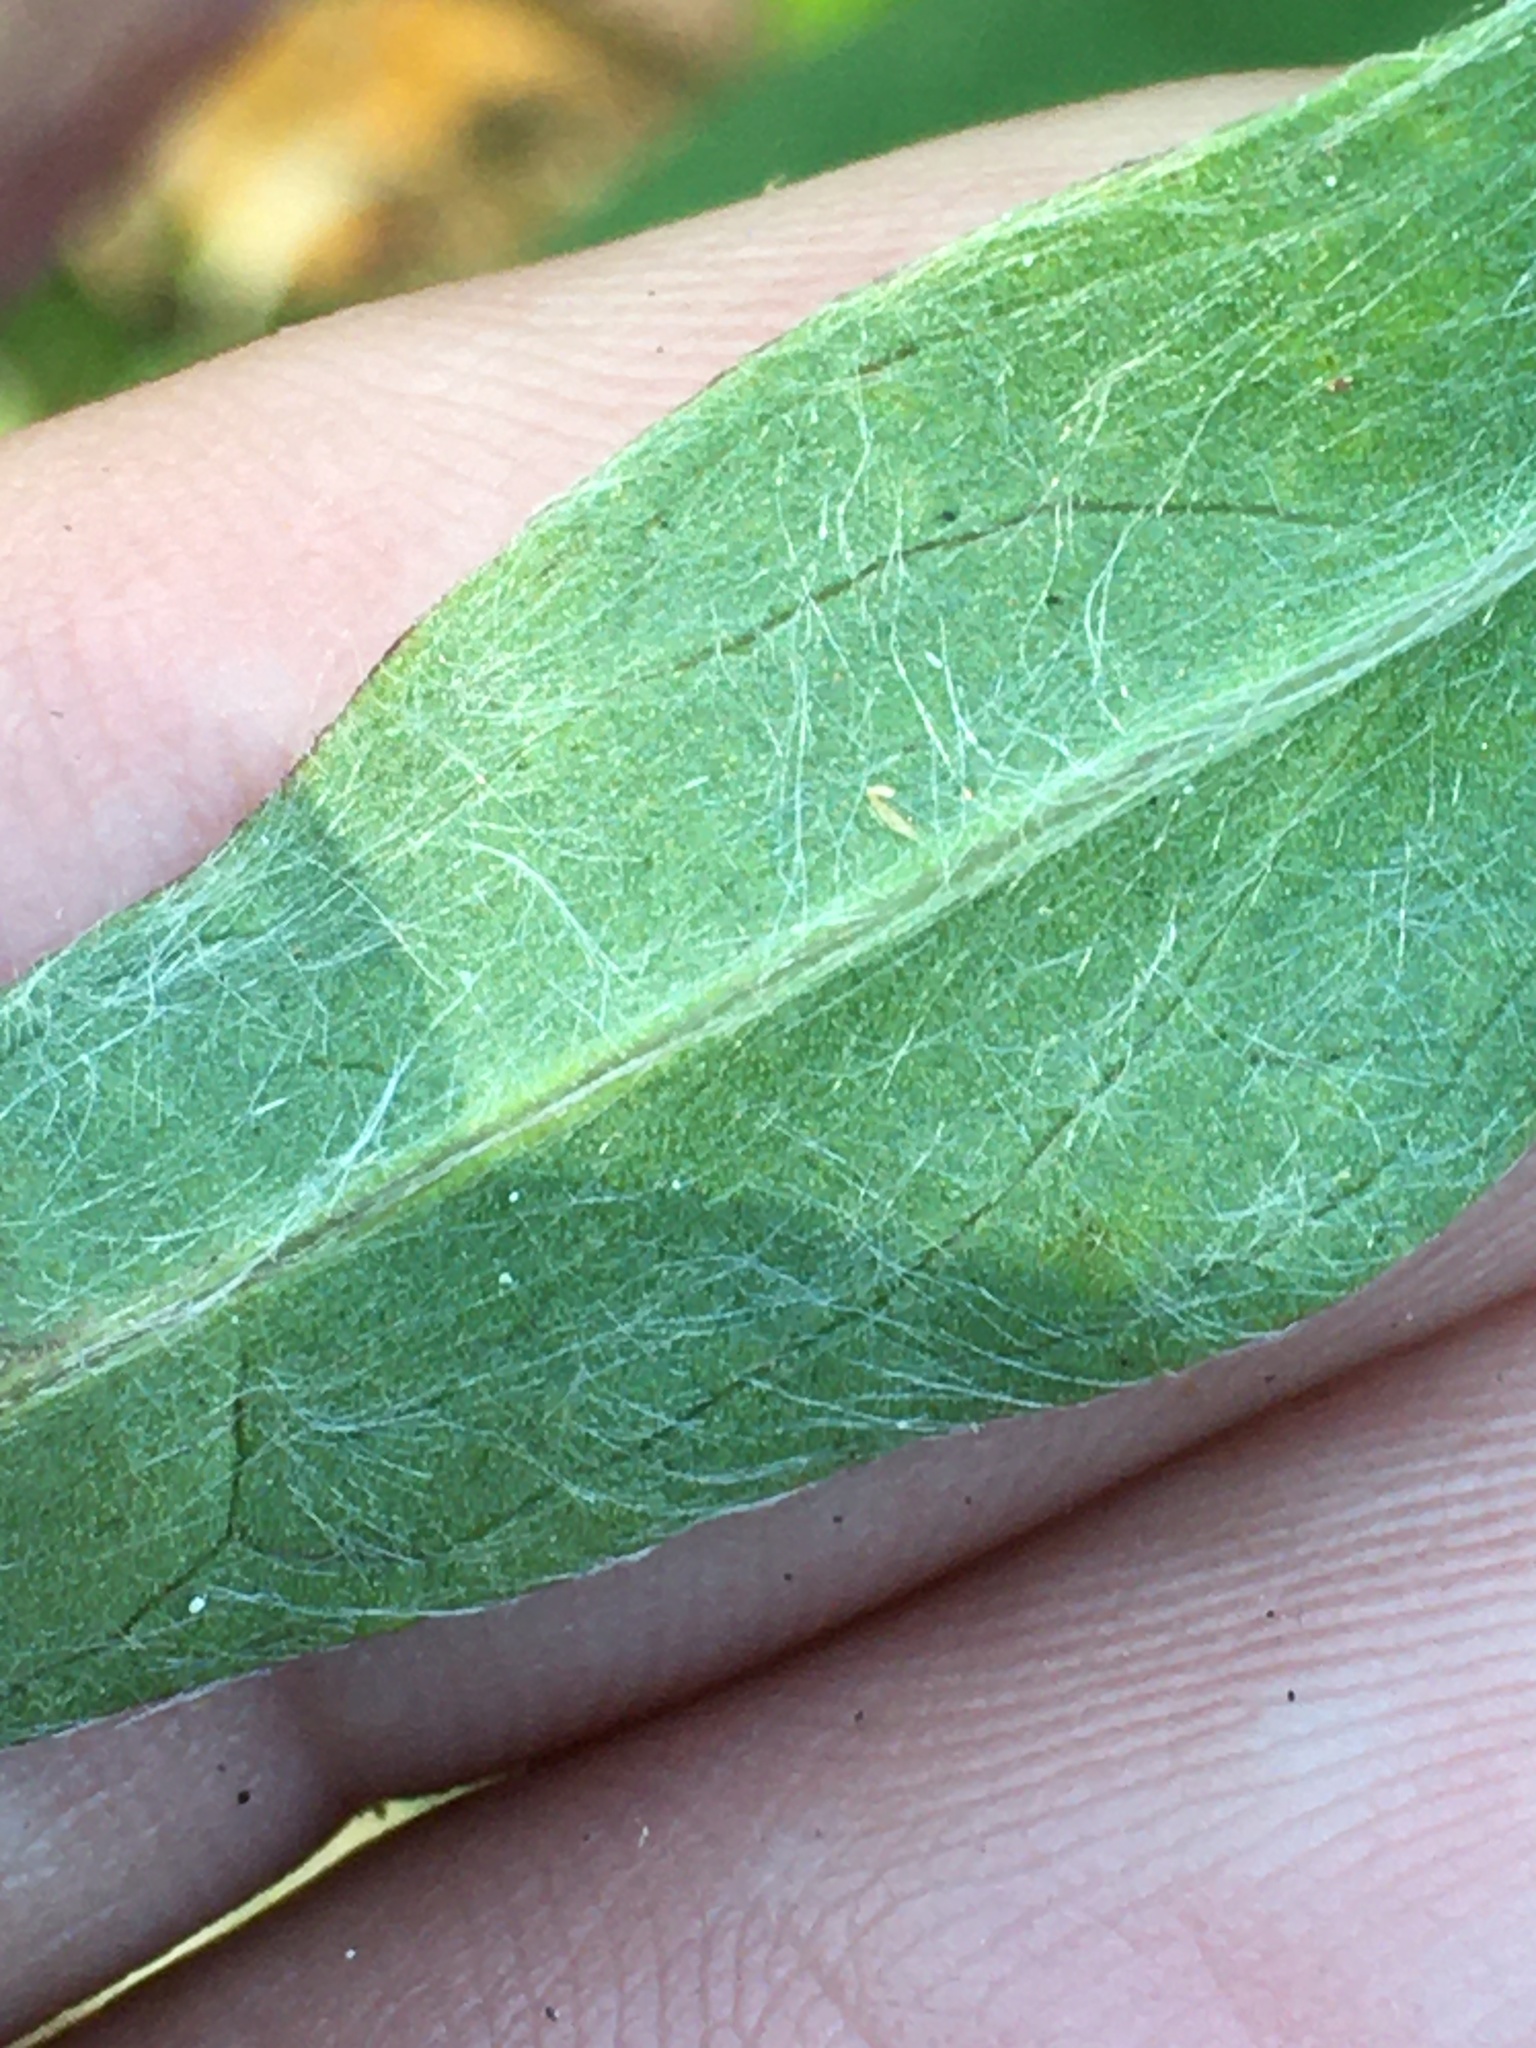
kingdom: Plantae
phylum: Tracheophyta
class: Magnoliopsida
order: Asterales
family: Asteraceae
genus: Chrysopsis
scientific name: Chrysopsis mariana
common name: Maryland golden-aster
